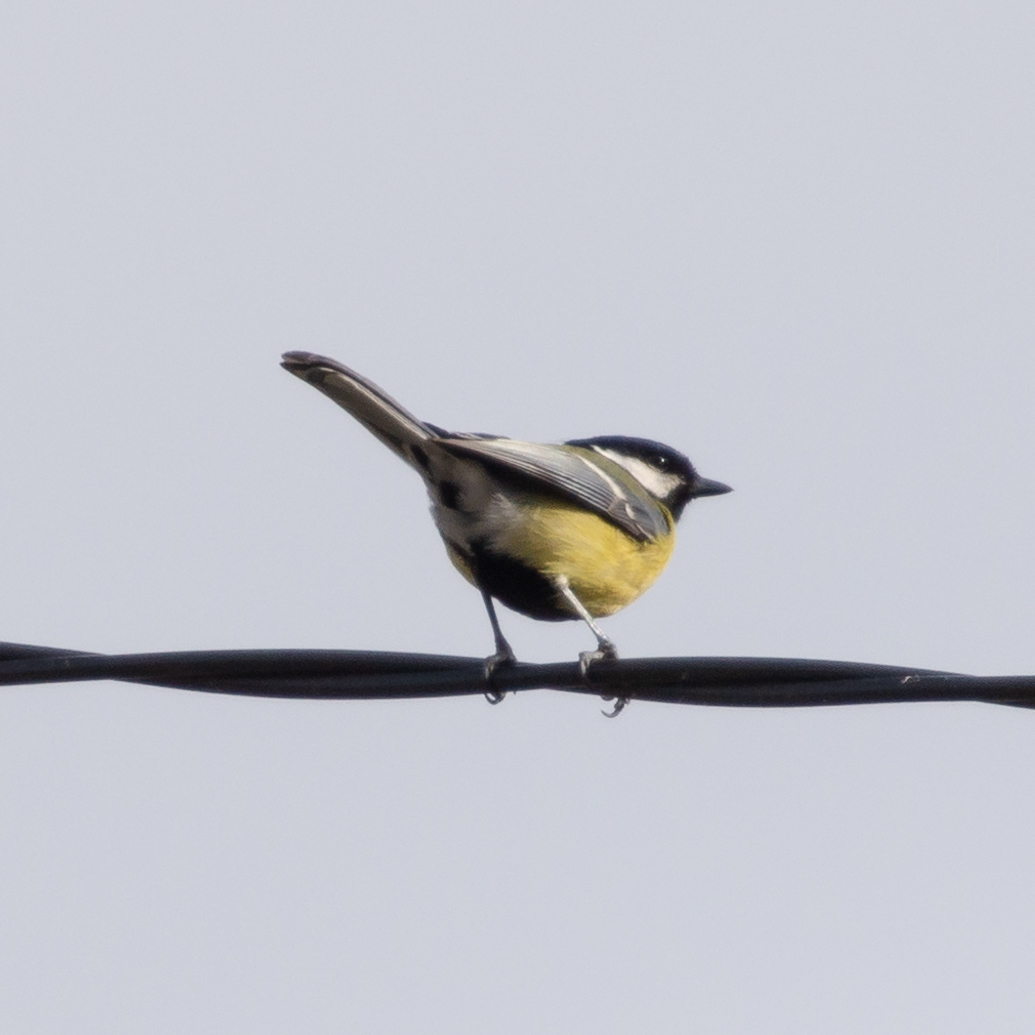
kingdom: Animalia
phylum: Chordata
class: Aves
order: Passeriformes
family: Paridae
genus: Parus
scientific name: Parus major
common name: Great tit
